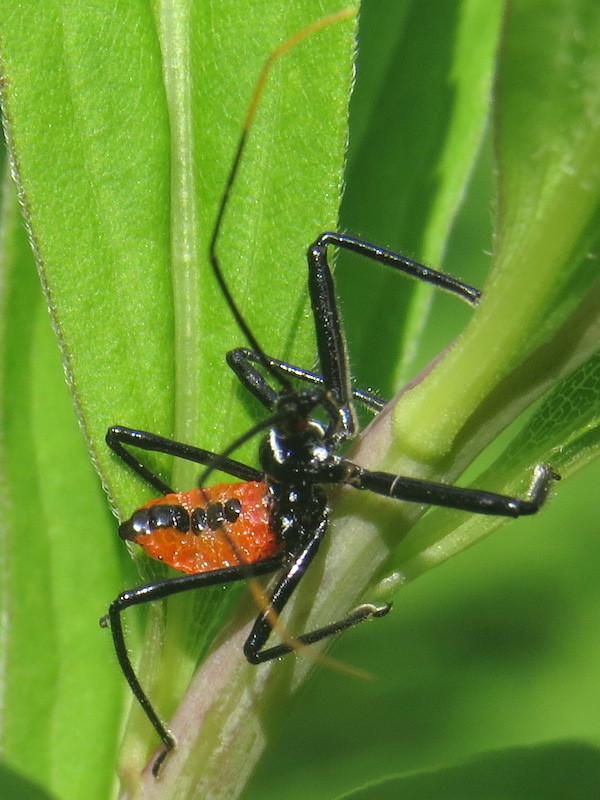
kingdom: Animalia
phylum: Arthropoda
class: Insecta
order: Hemiptera
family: Reduviidae
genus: Arilus
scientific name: Arilus cristatus
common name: North american wheel bug
